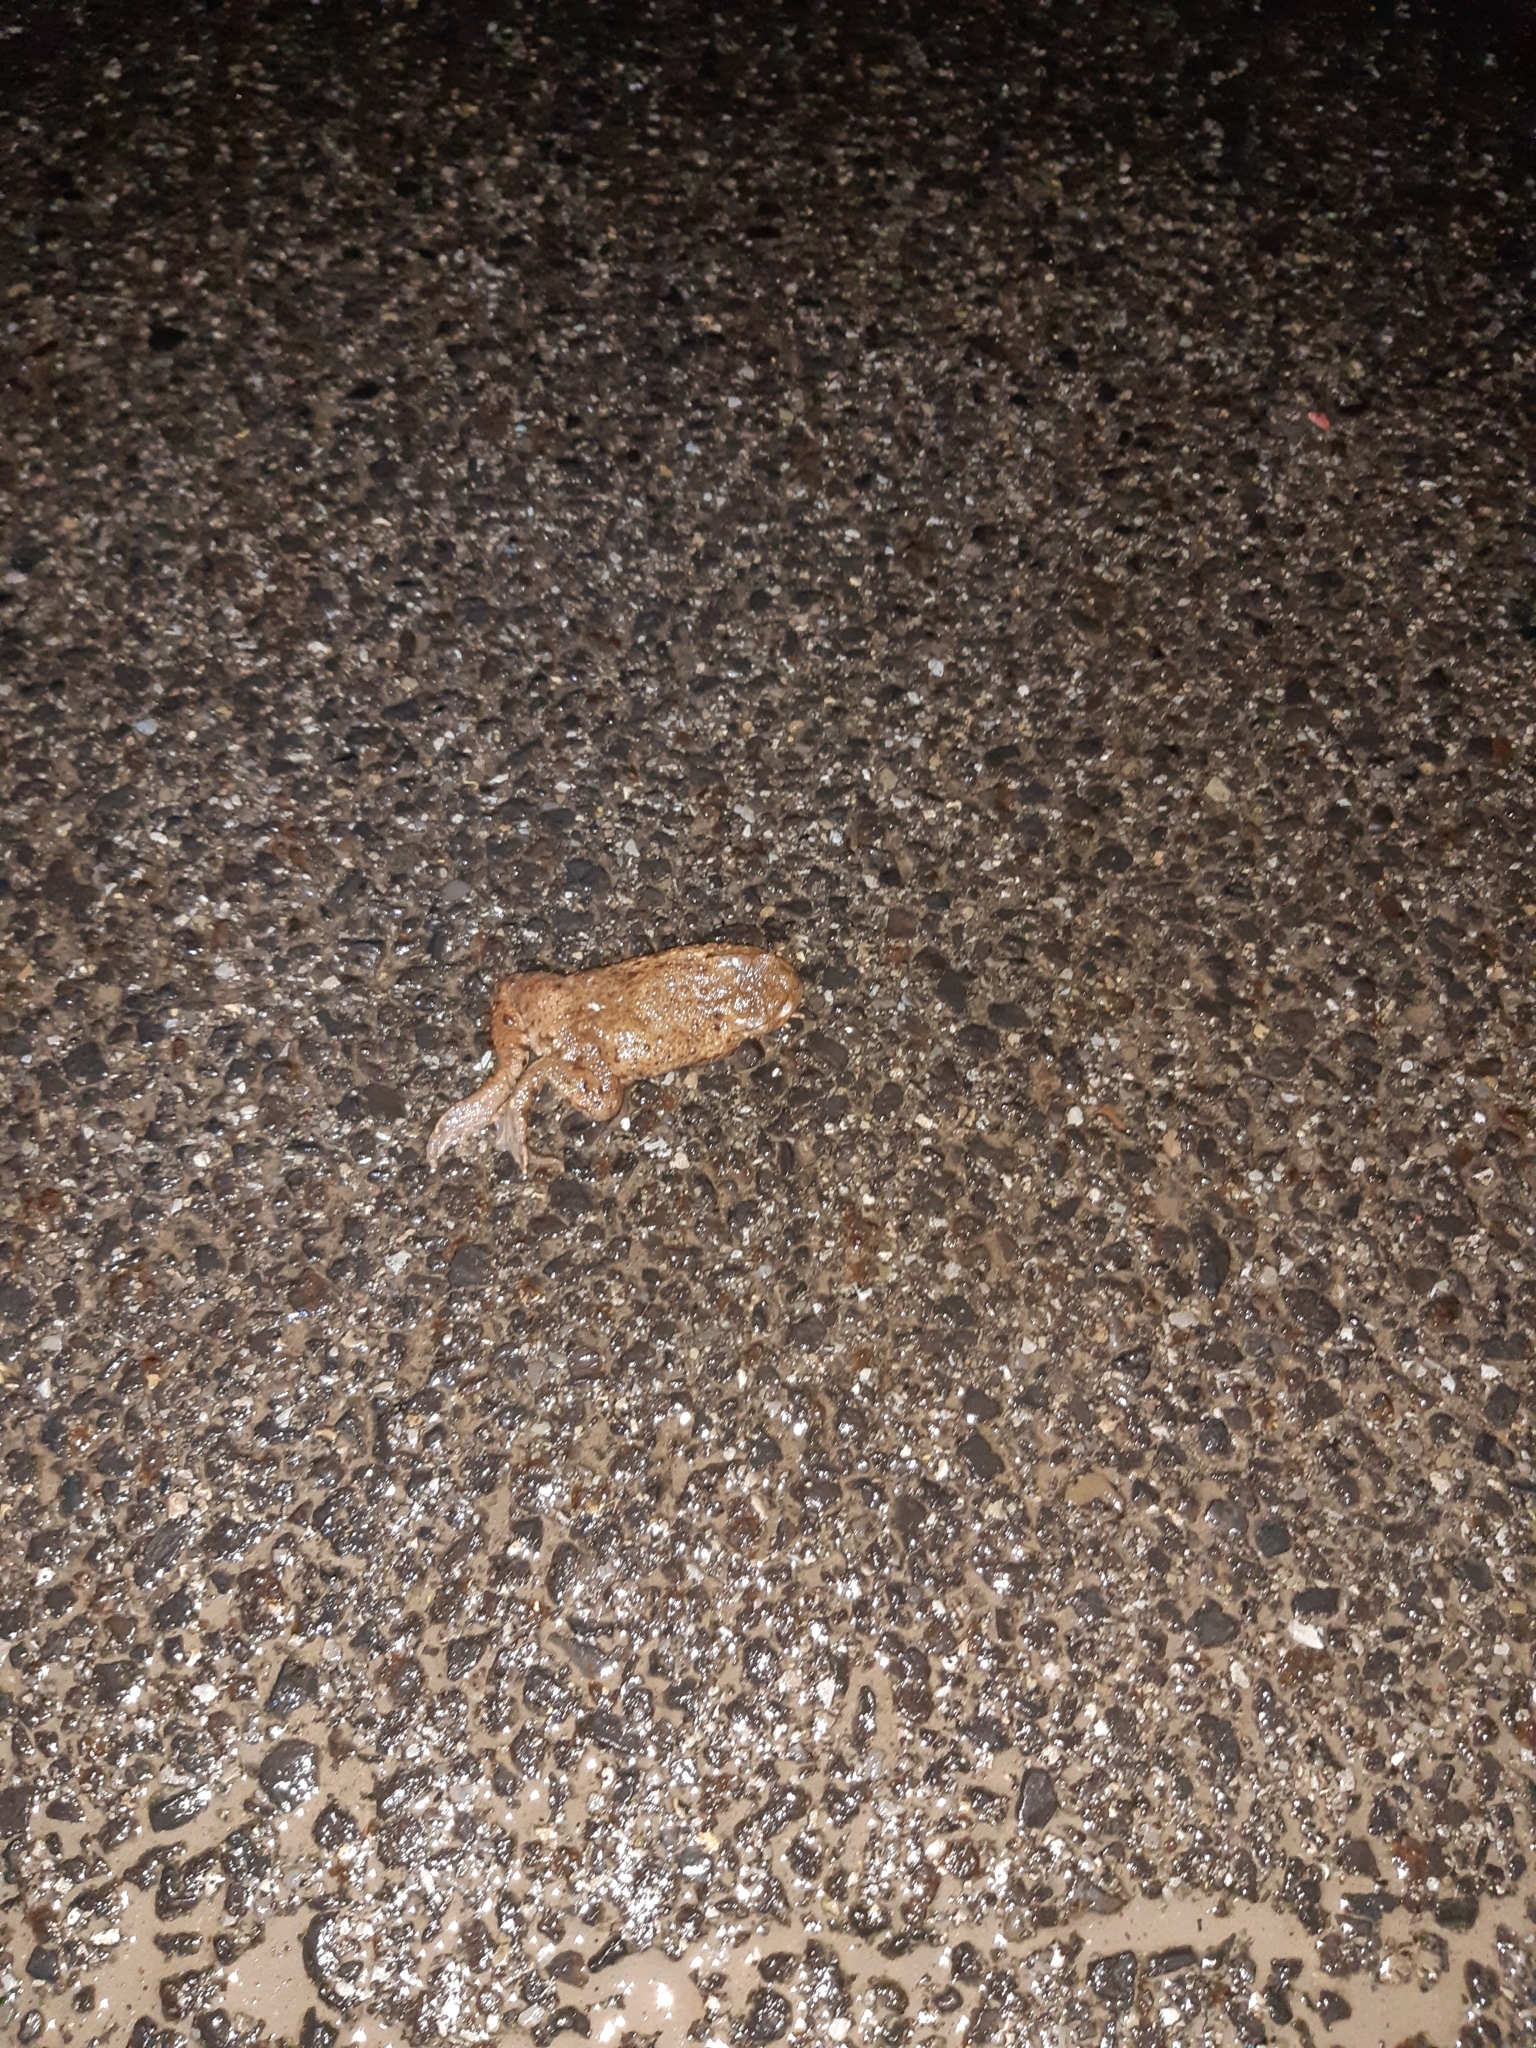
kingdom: Animalia
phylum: Chordata
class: Amphibia
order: Anura
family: Bufonidae
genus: Bufo
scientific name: Bufo bufo
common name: Common toad
